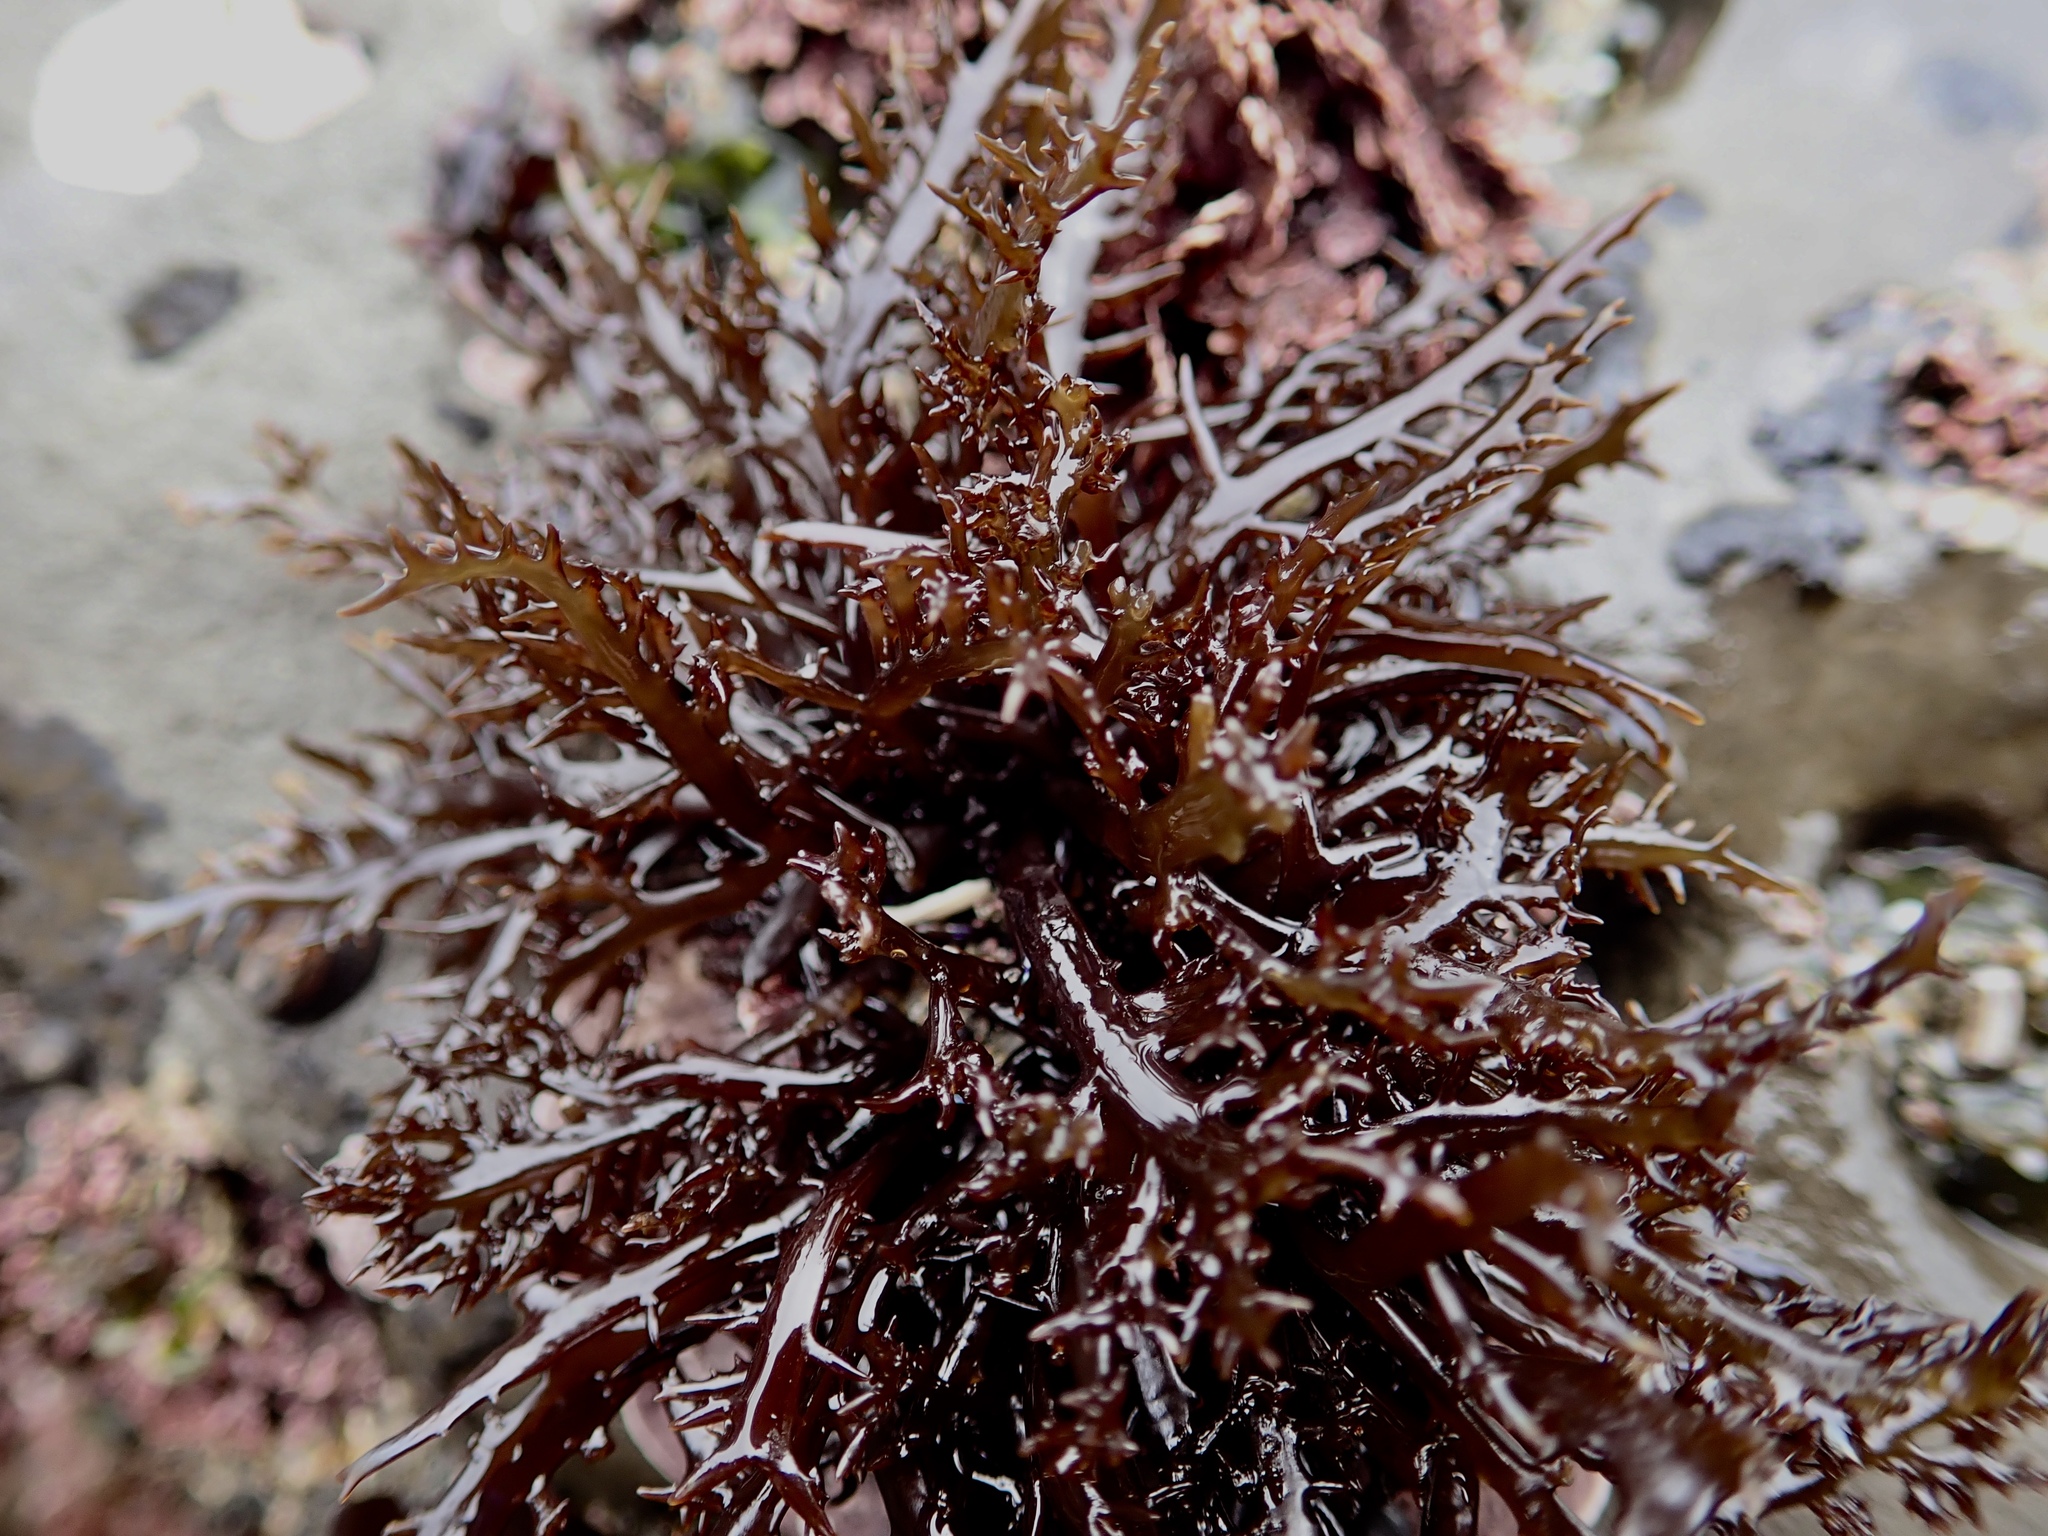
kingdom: Plantae
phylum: Rhodophyta
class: Florideophyceae
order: Gigartinales
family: Gigartinaceae
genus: Chondracanthus
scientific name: Chondracanthus canaliculatus
